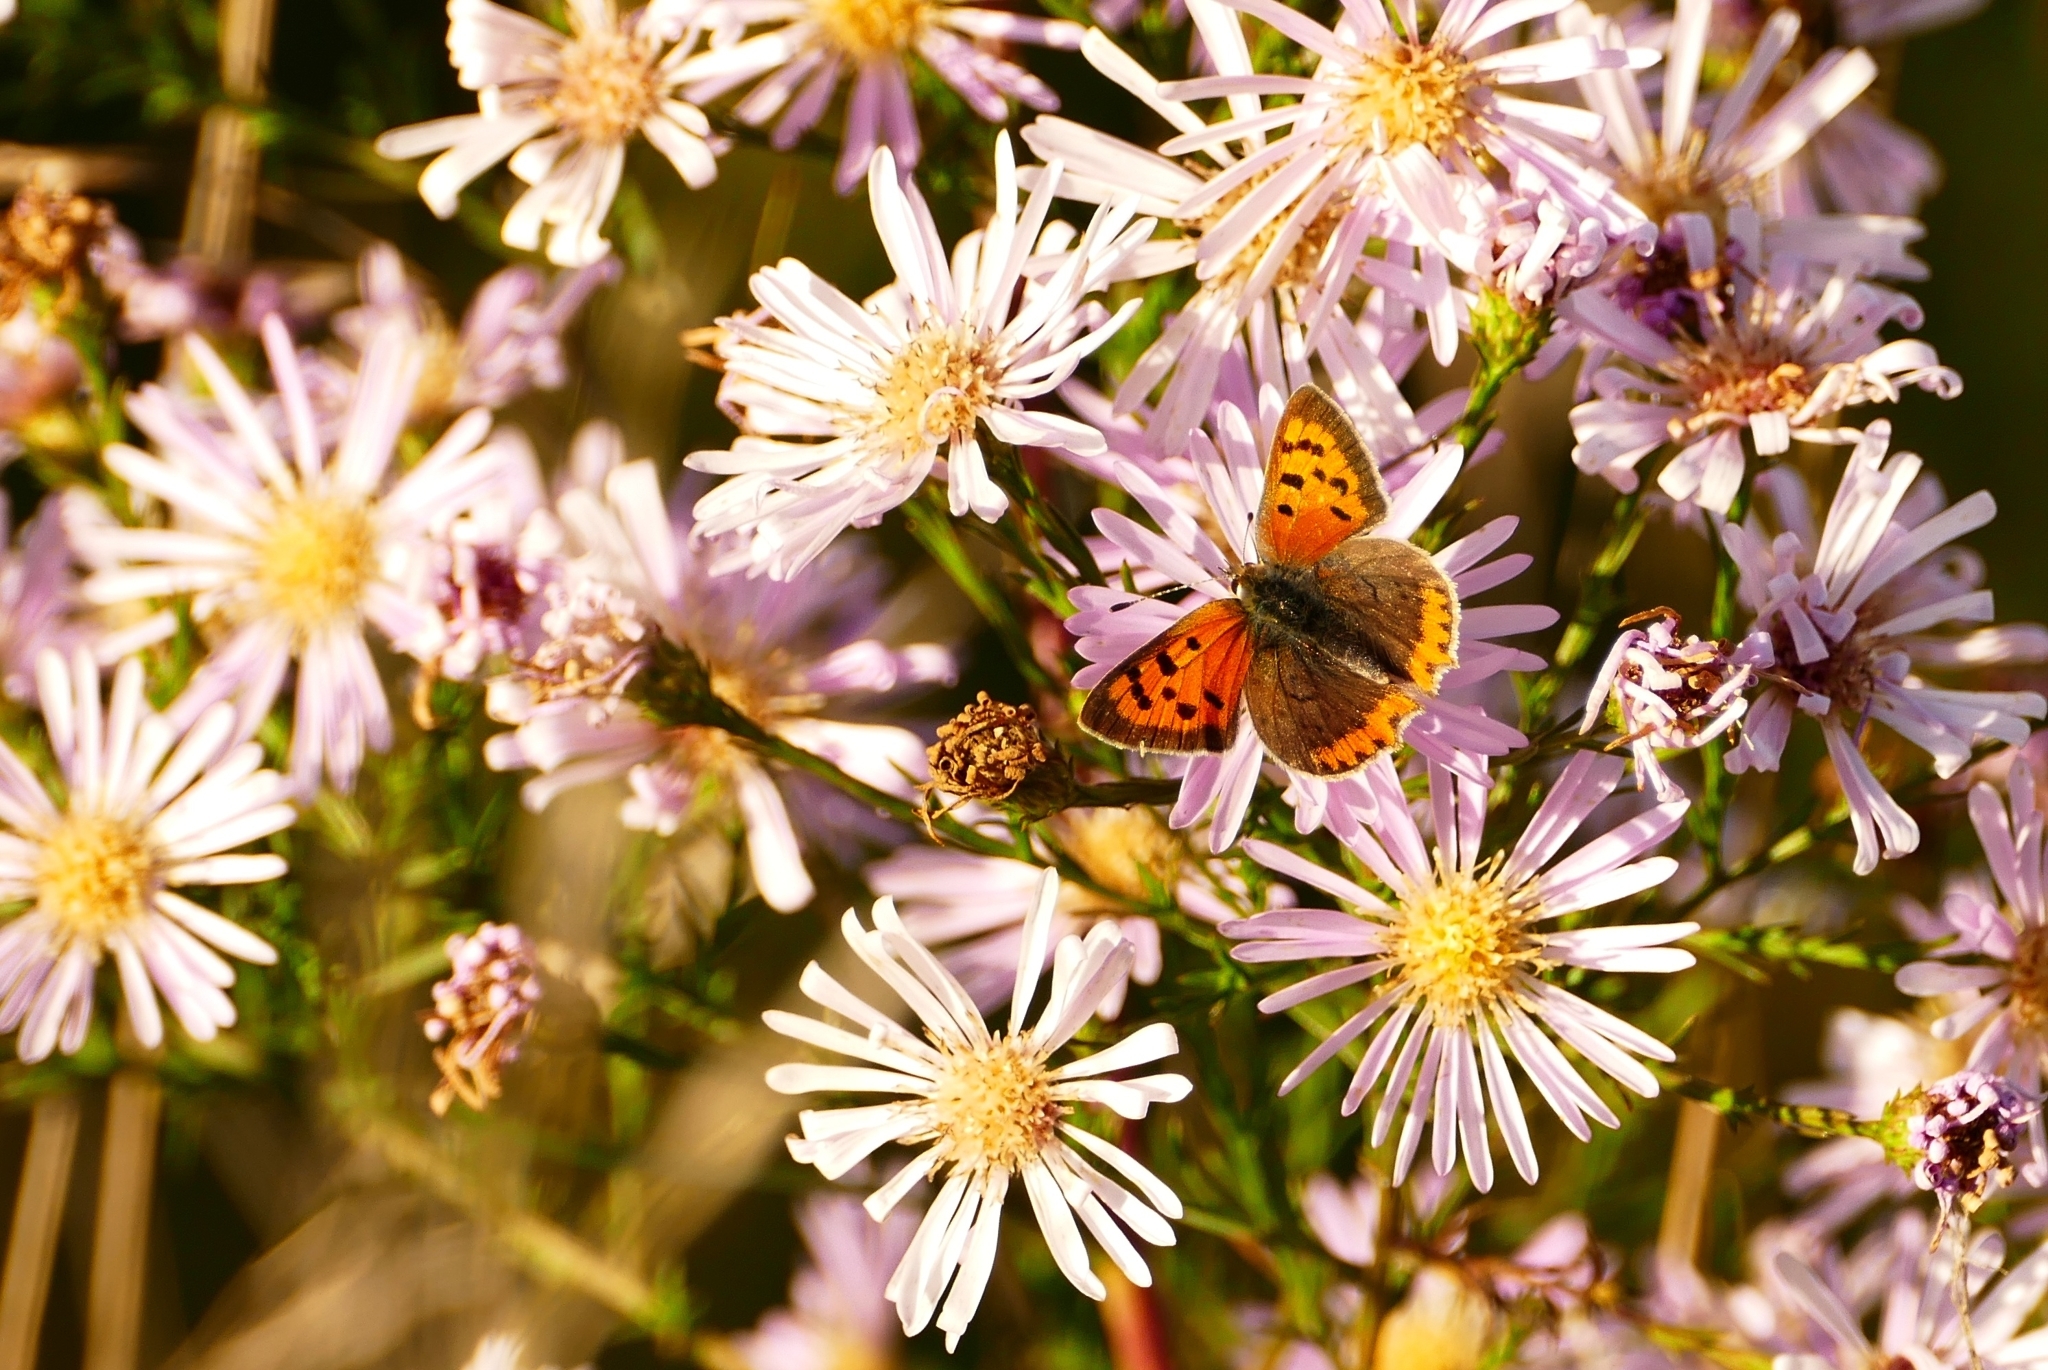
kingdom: Animalia
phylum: Arthropoda
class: Insecta
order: Lepidoptera
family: Lycaenidae
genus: Lycaena
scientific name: Lycaena phlaeas
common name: Small copper
